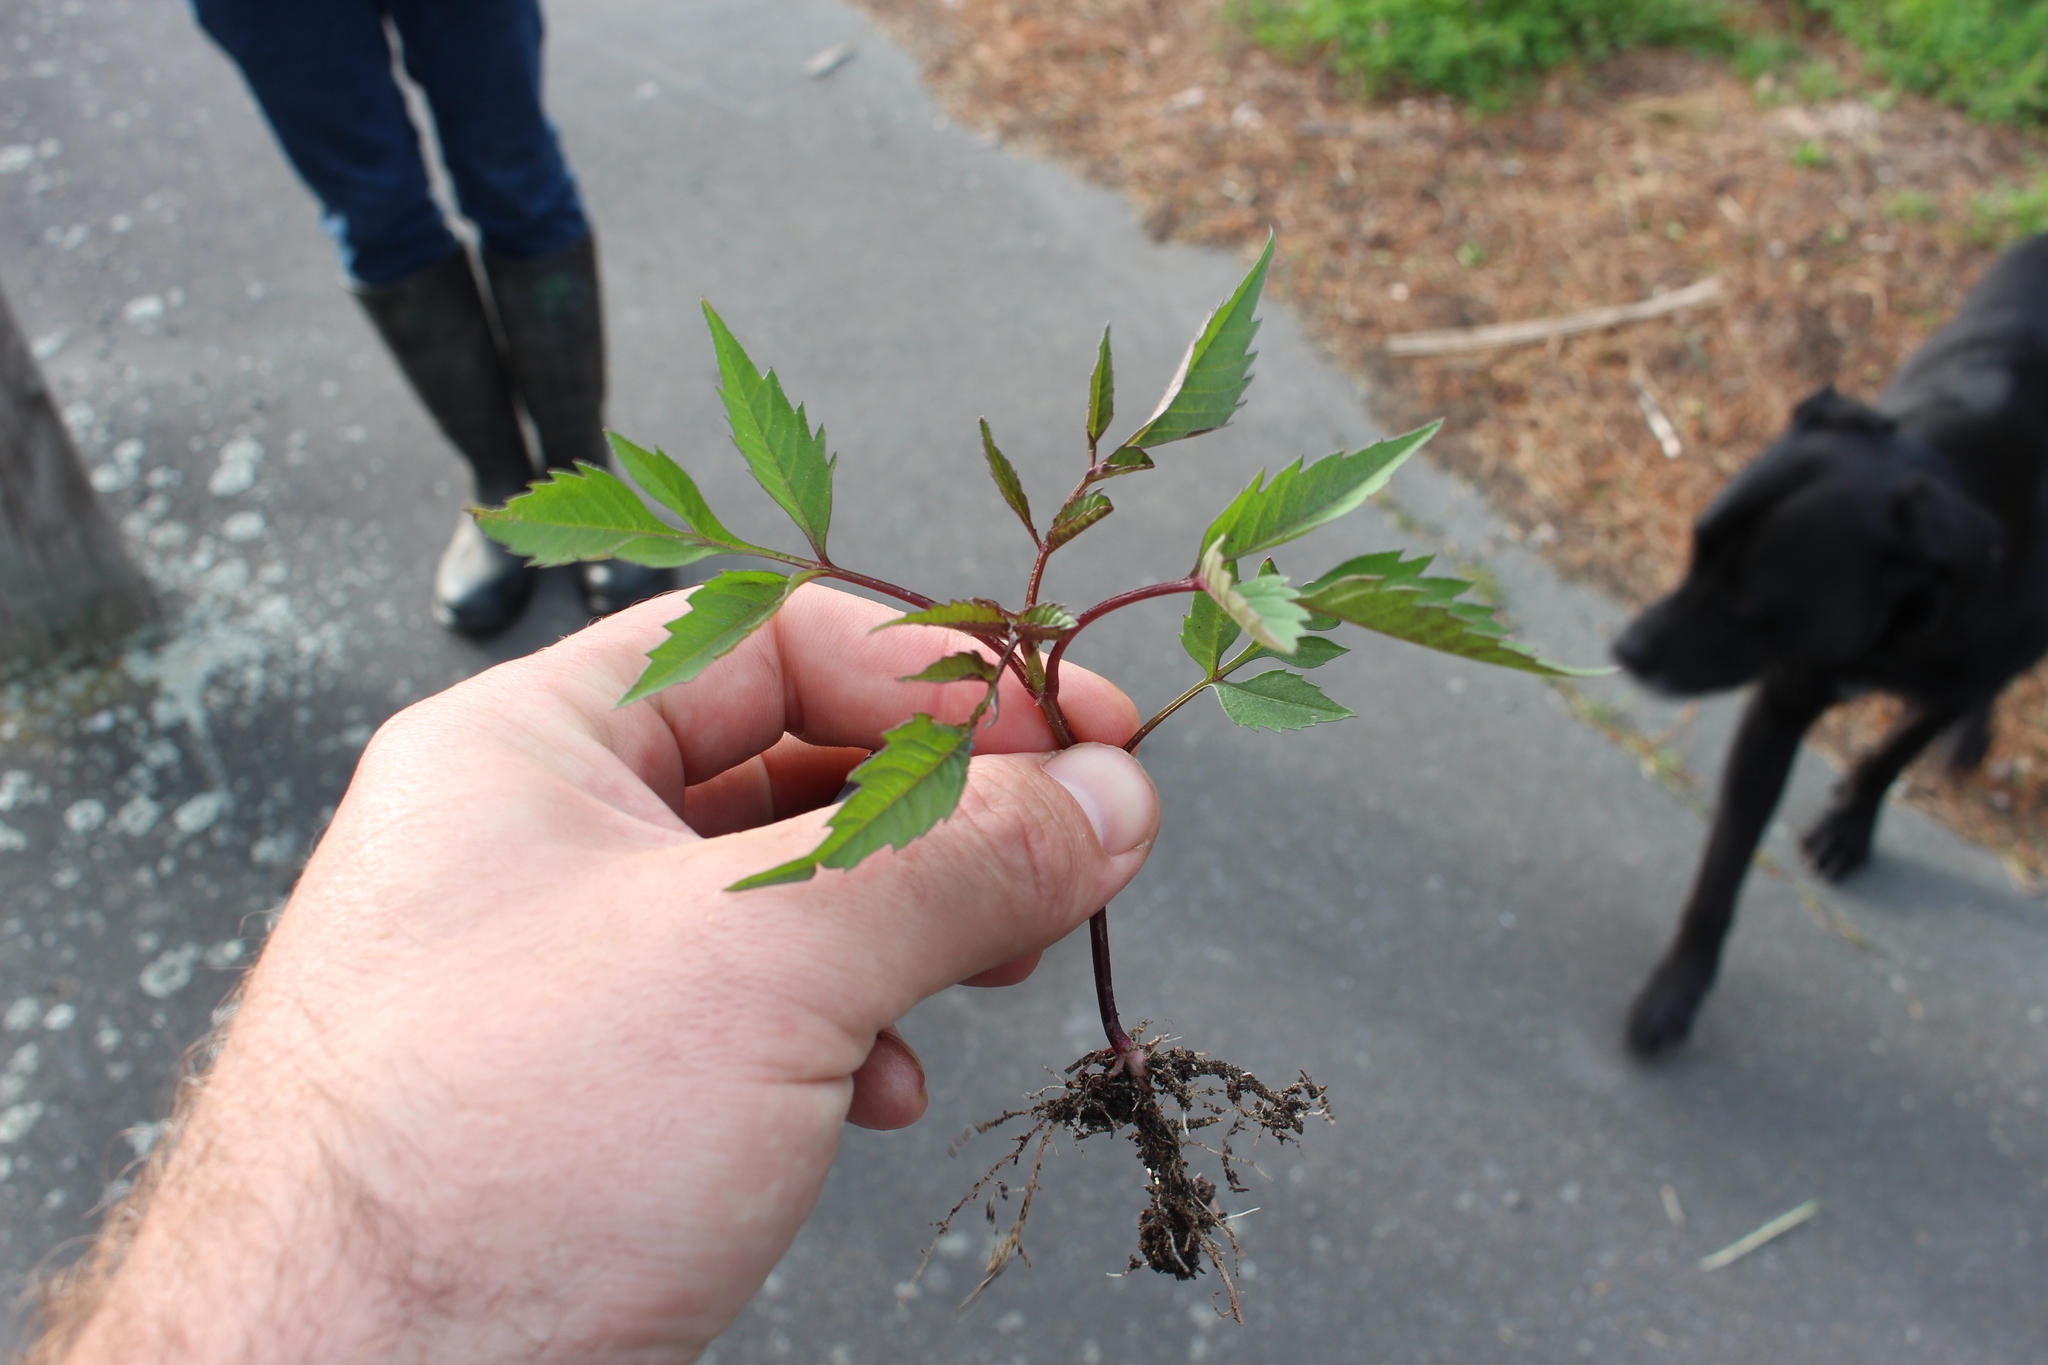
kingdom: Plantae
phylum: Tracheophyta
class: Magnoliopsida
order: Asterales
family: Asteraceae
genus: Bidens
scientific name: Bidens frondosa
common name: Beggarticks
